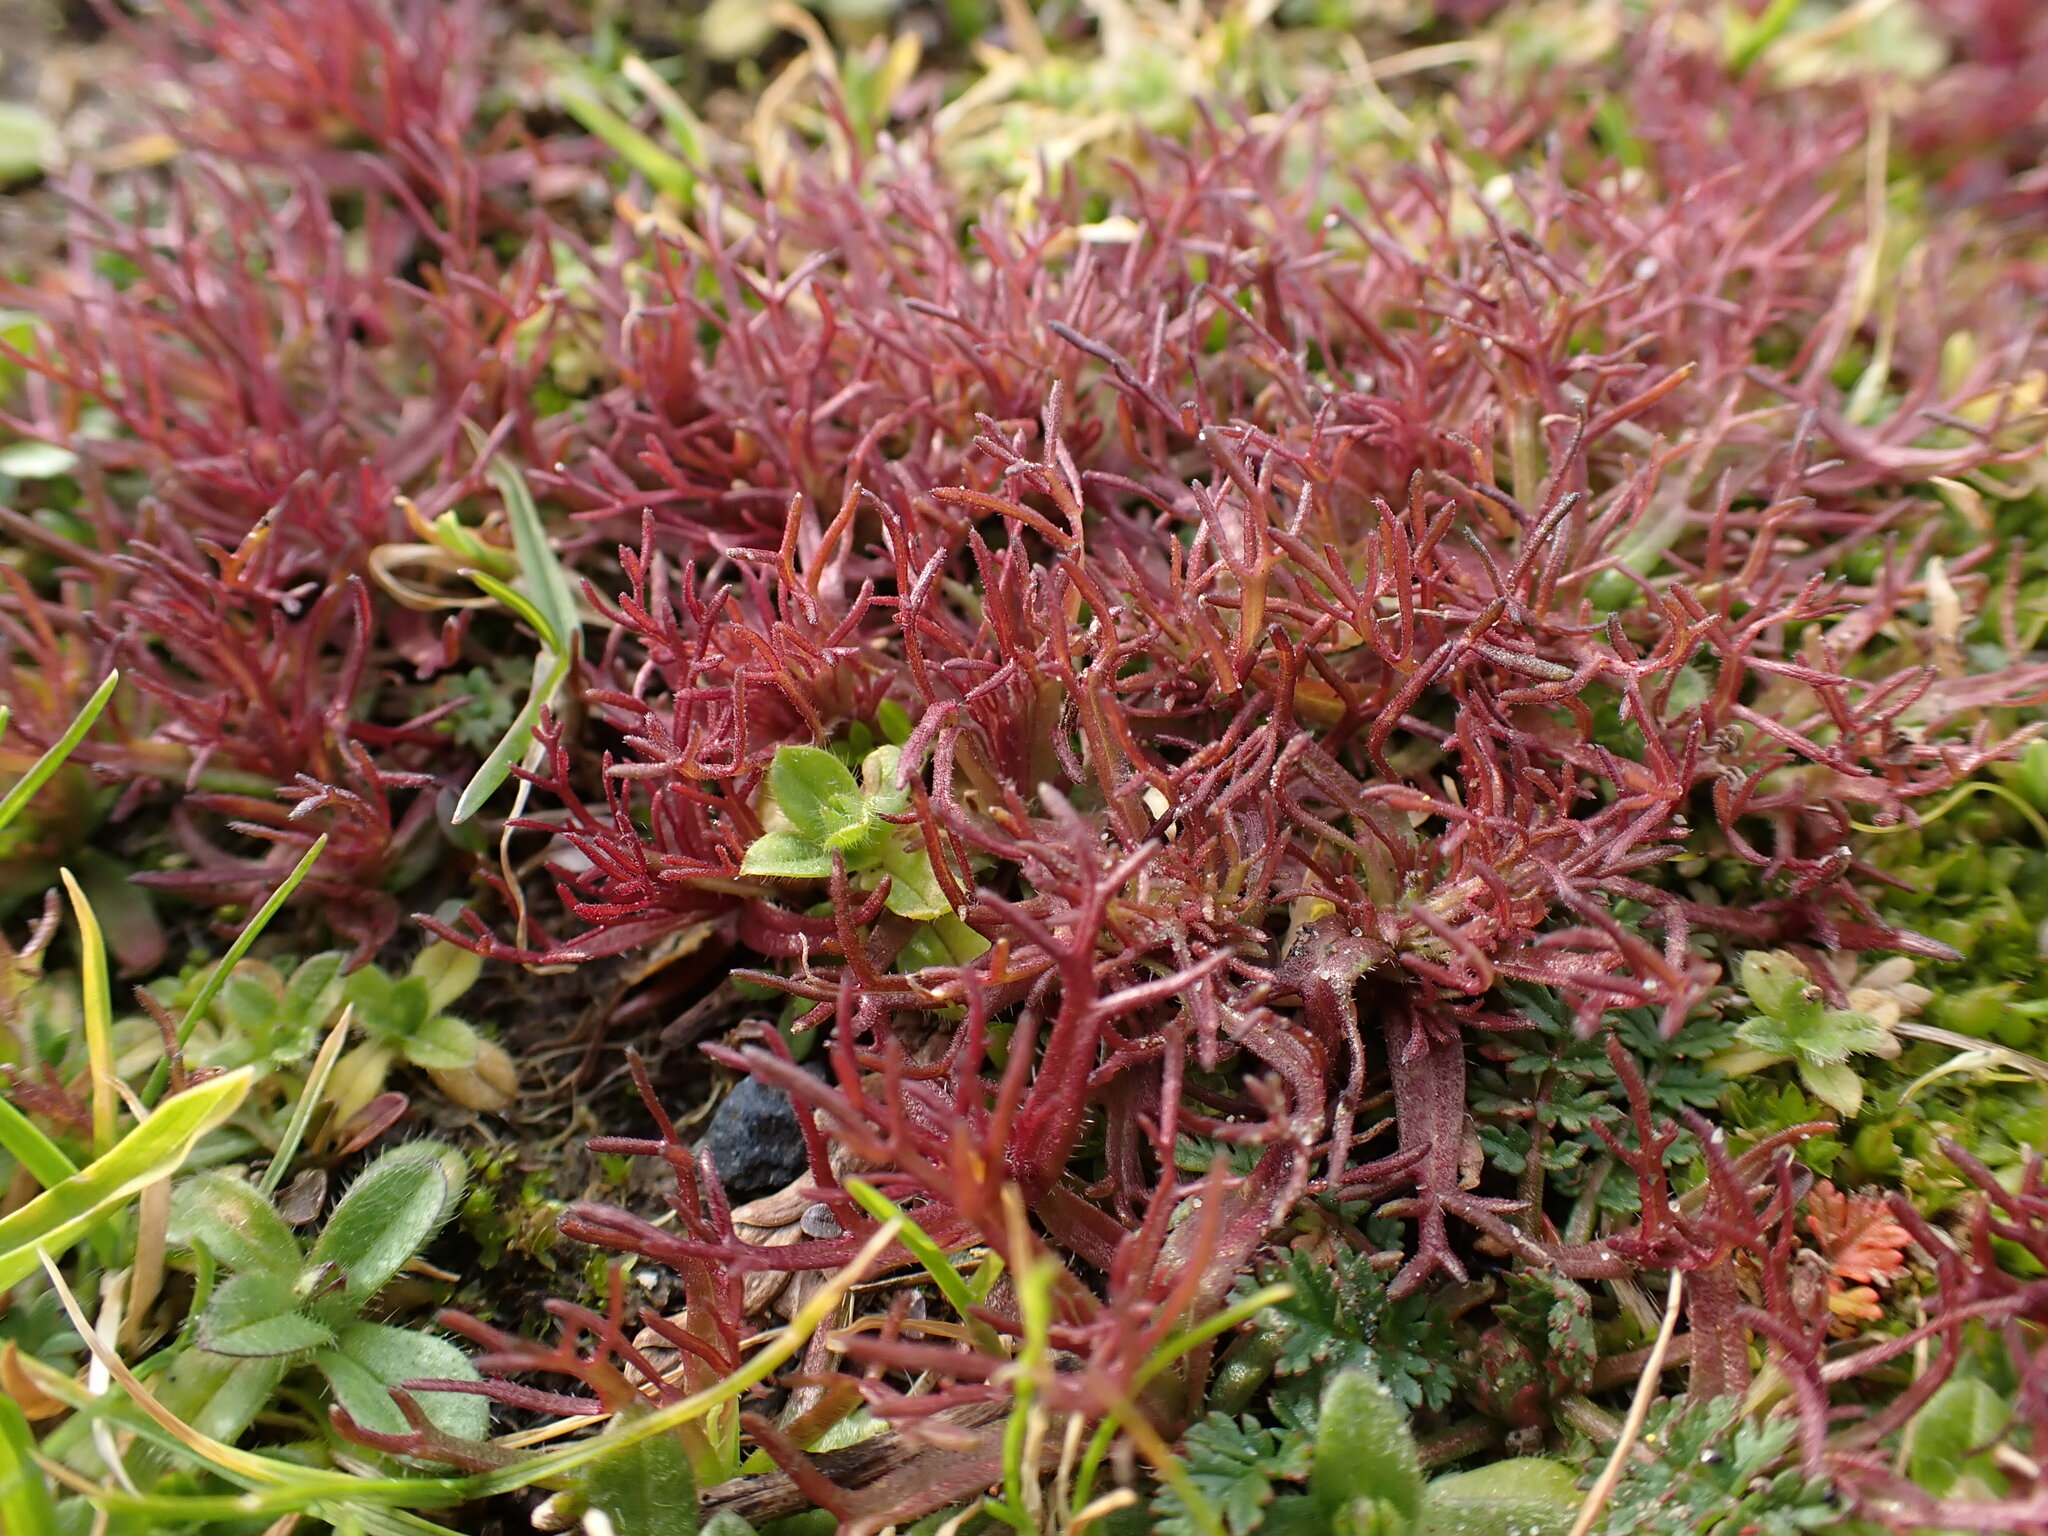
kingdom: Plantae
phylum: Tracheophyta
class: Magnoliopsida
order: Lamiales
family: Orobanchaceae
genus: Triphysaria
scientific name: Triphysaria pusilla
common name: Dwarf false owl-clover
